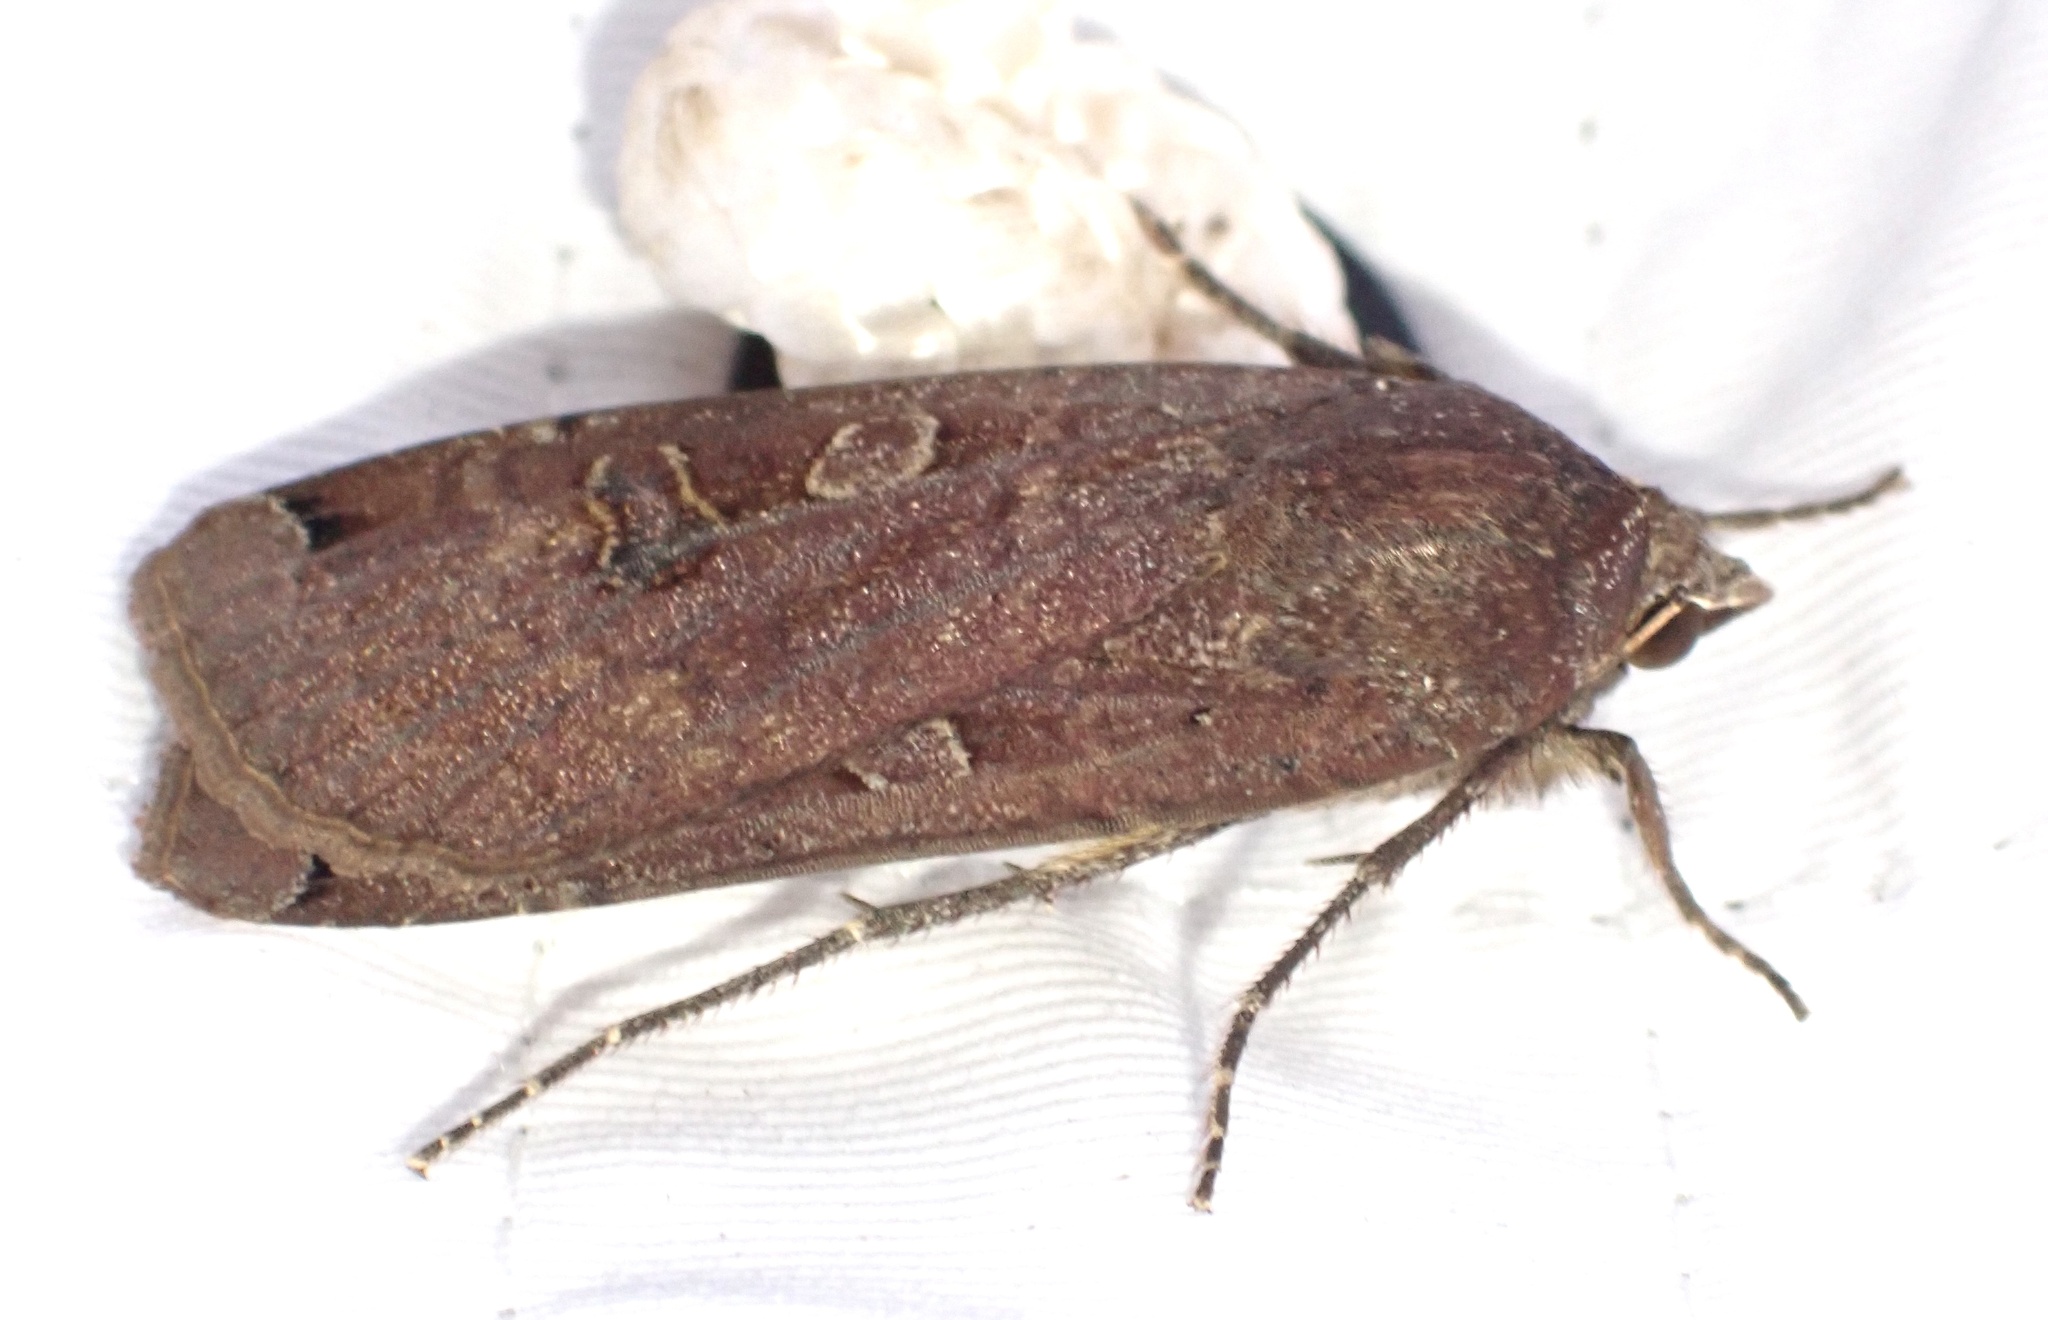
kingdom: Animalia
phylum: Arthropoda
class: Insecta
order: Lepidoptera
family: Noctuidae
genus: Noctua
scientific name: Noctua pronuba
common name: Large yellow underwing
